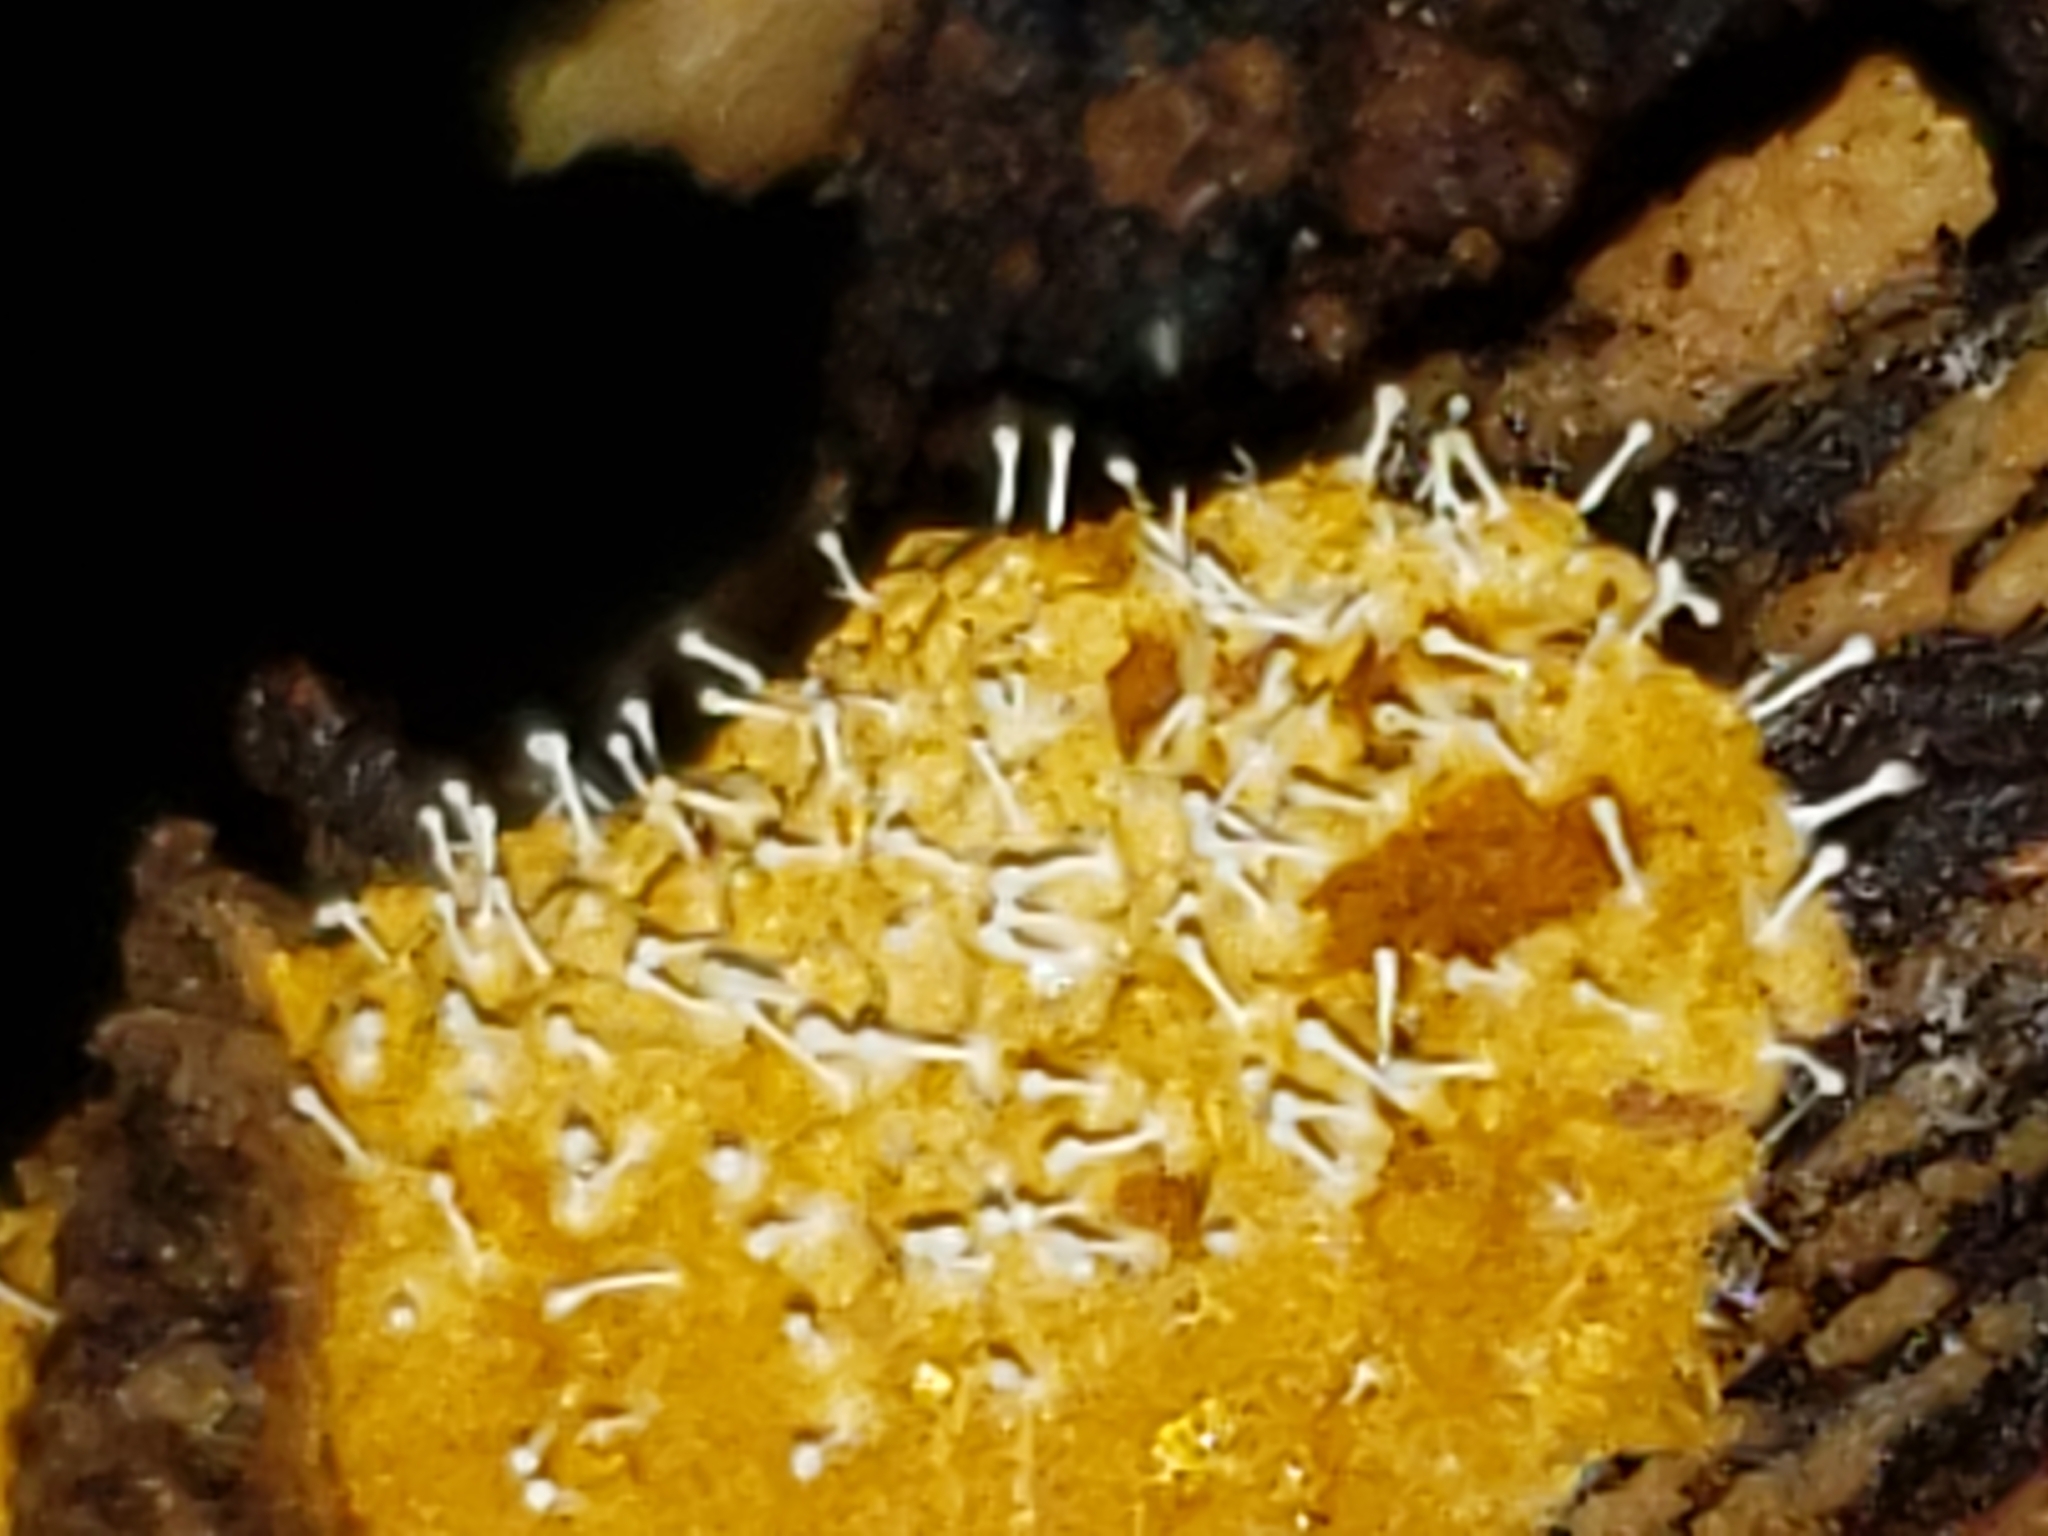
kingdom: Fungi
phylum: Ascomycota
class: Sordariomycetes
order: Hypocreales
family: Ophiocordycipitaceae
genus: Polycephalomyces
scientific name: Polycephalomyces tomentosus
